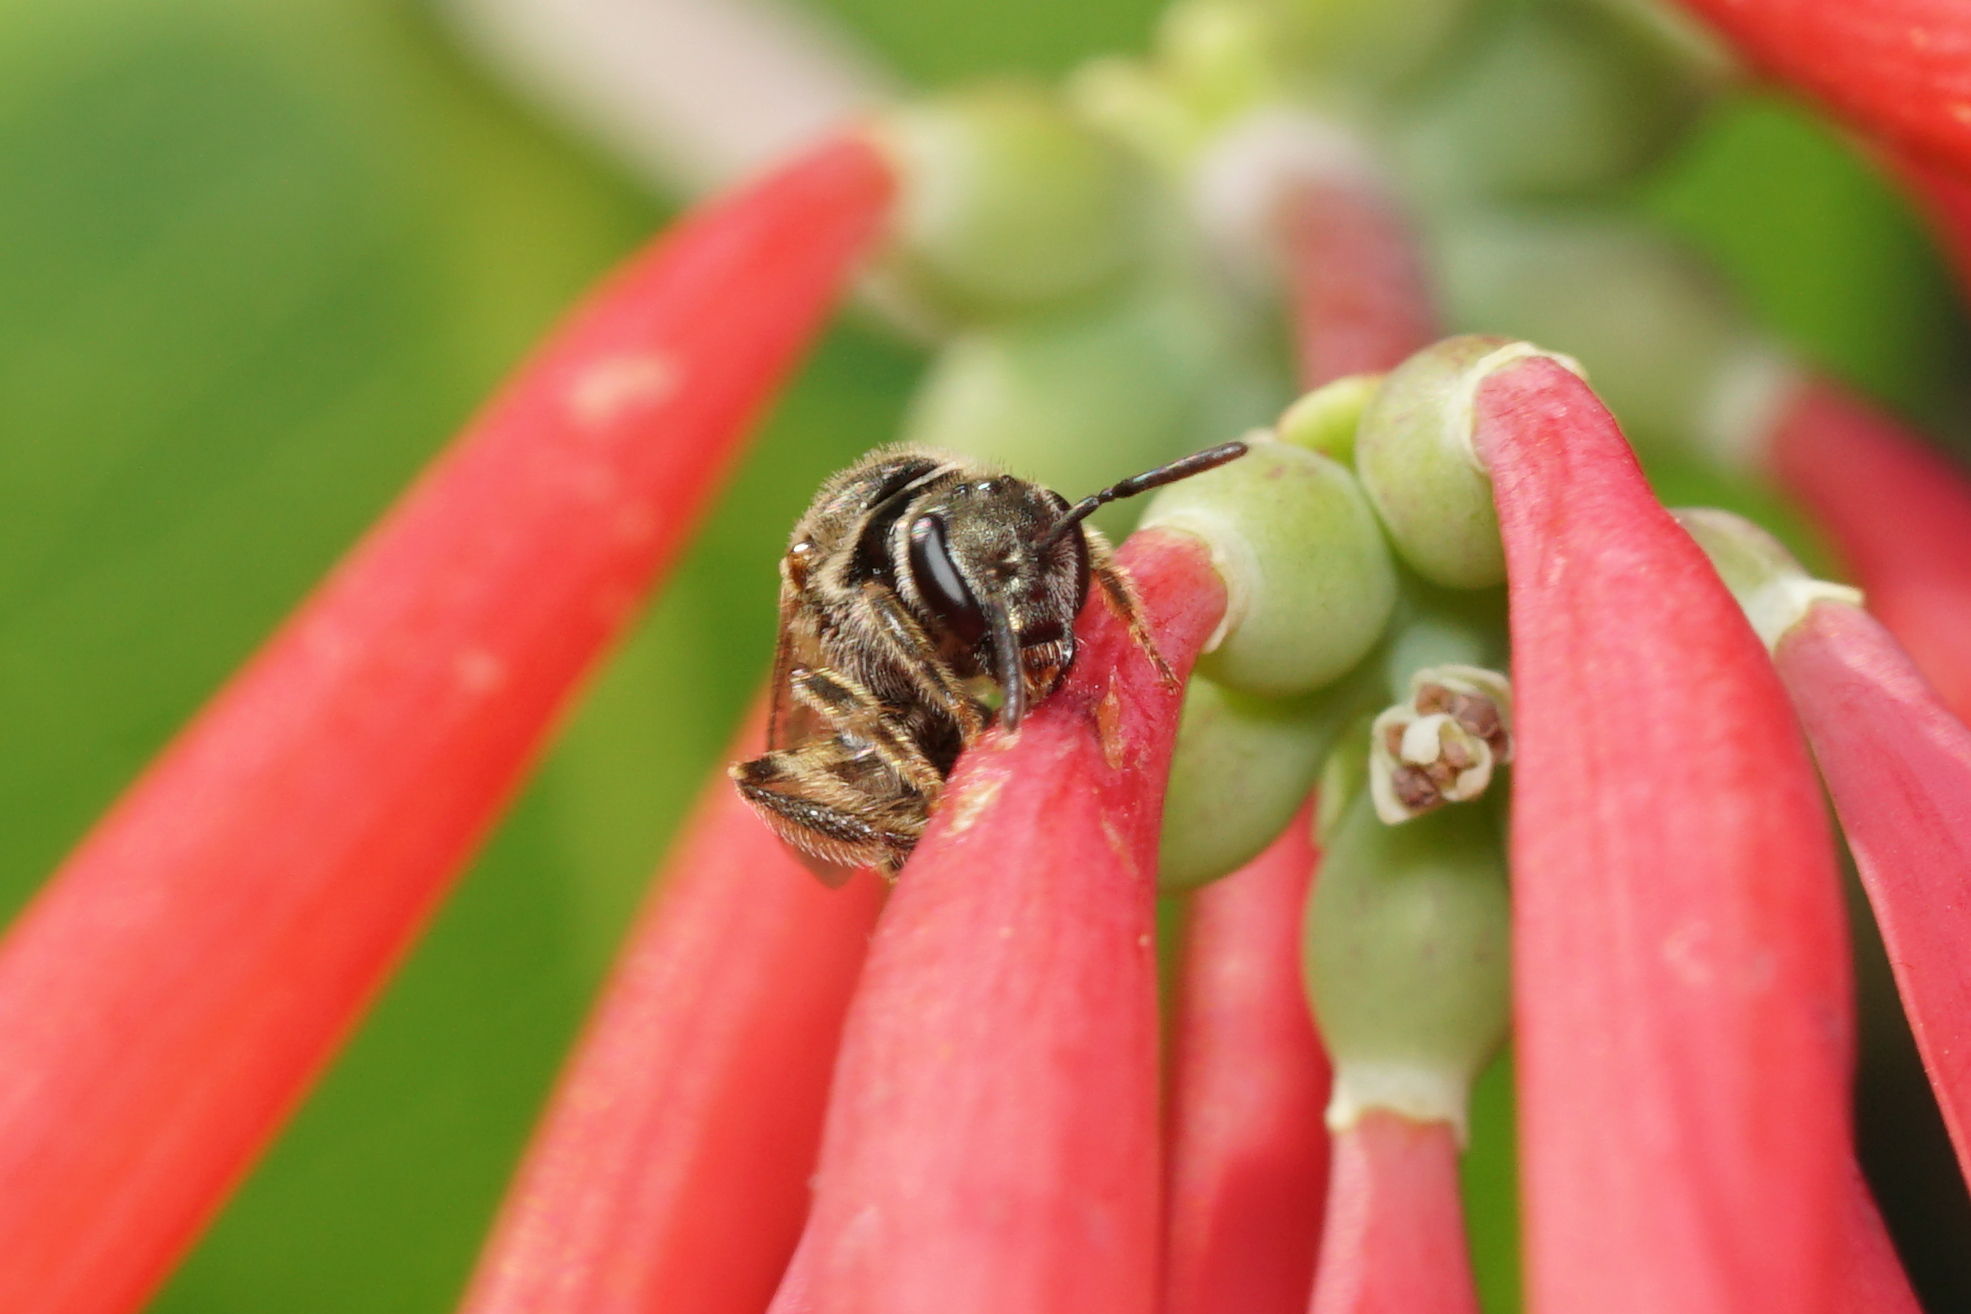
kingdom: Animalia
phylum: Arthropoda
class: Insecta
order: Hymenoptera
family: Halictidae
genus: Dialictus
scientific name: Dialictus
